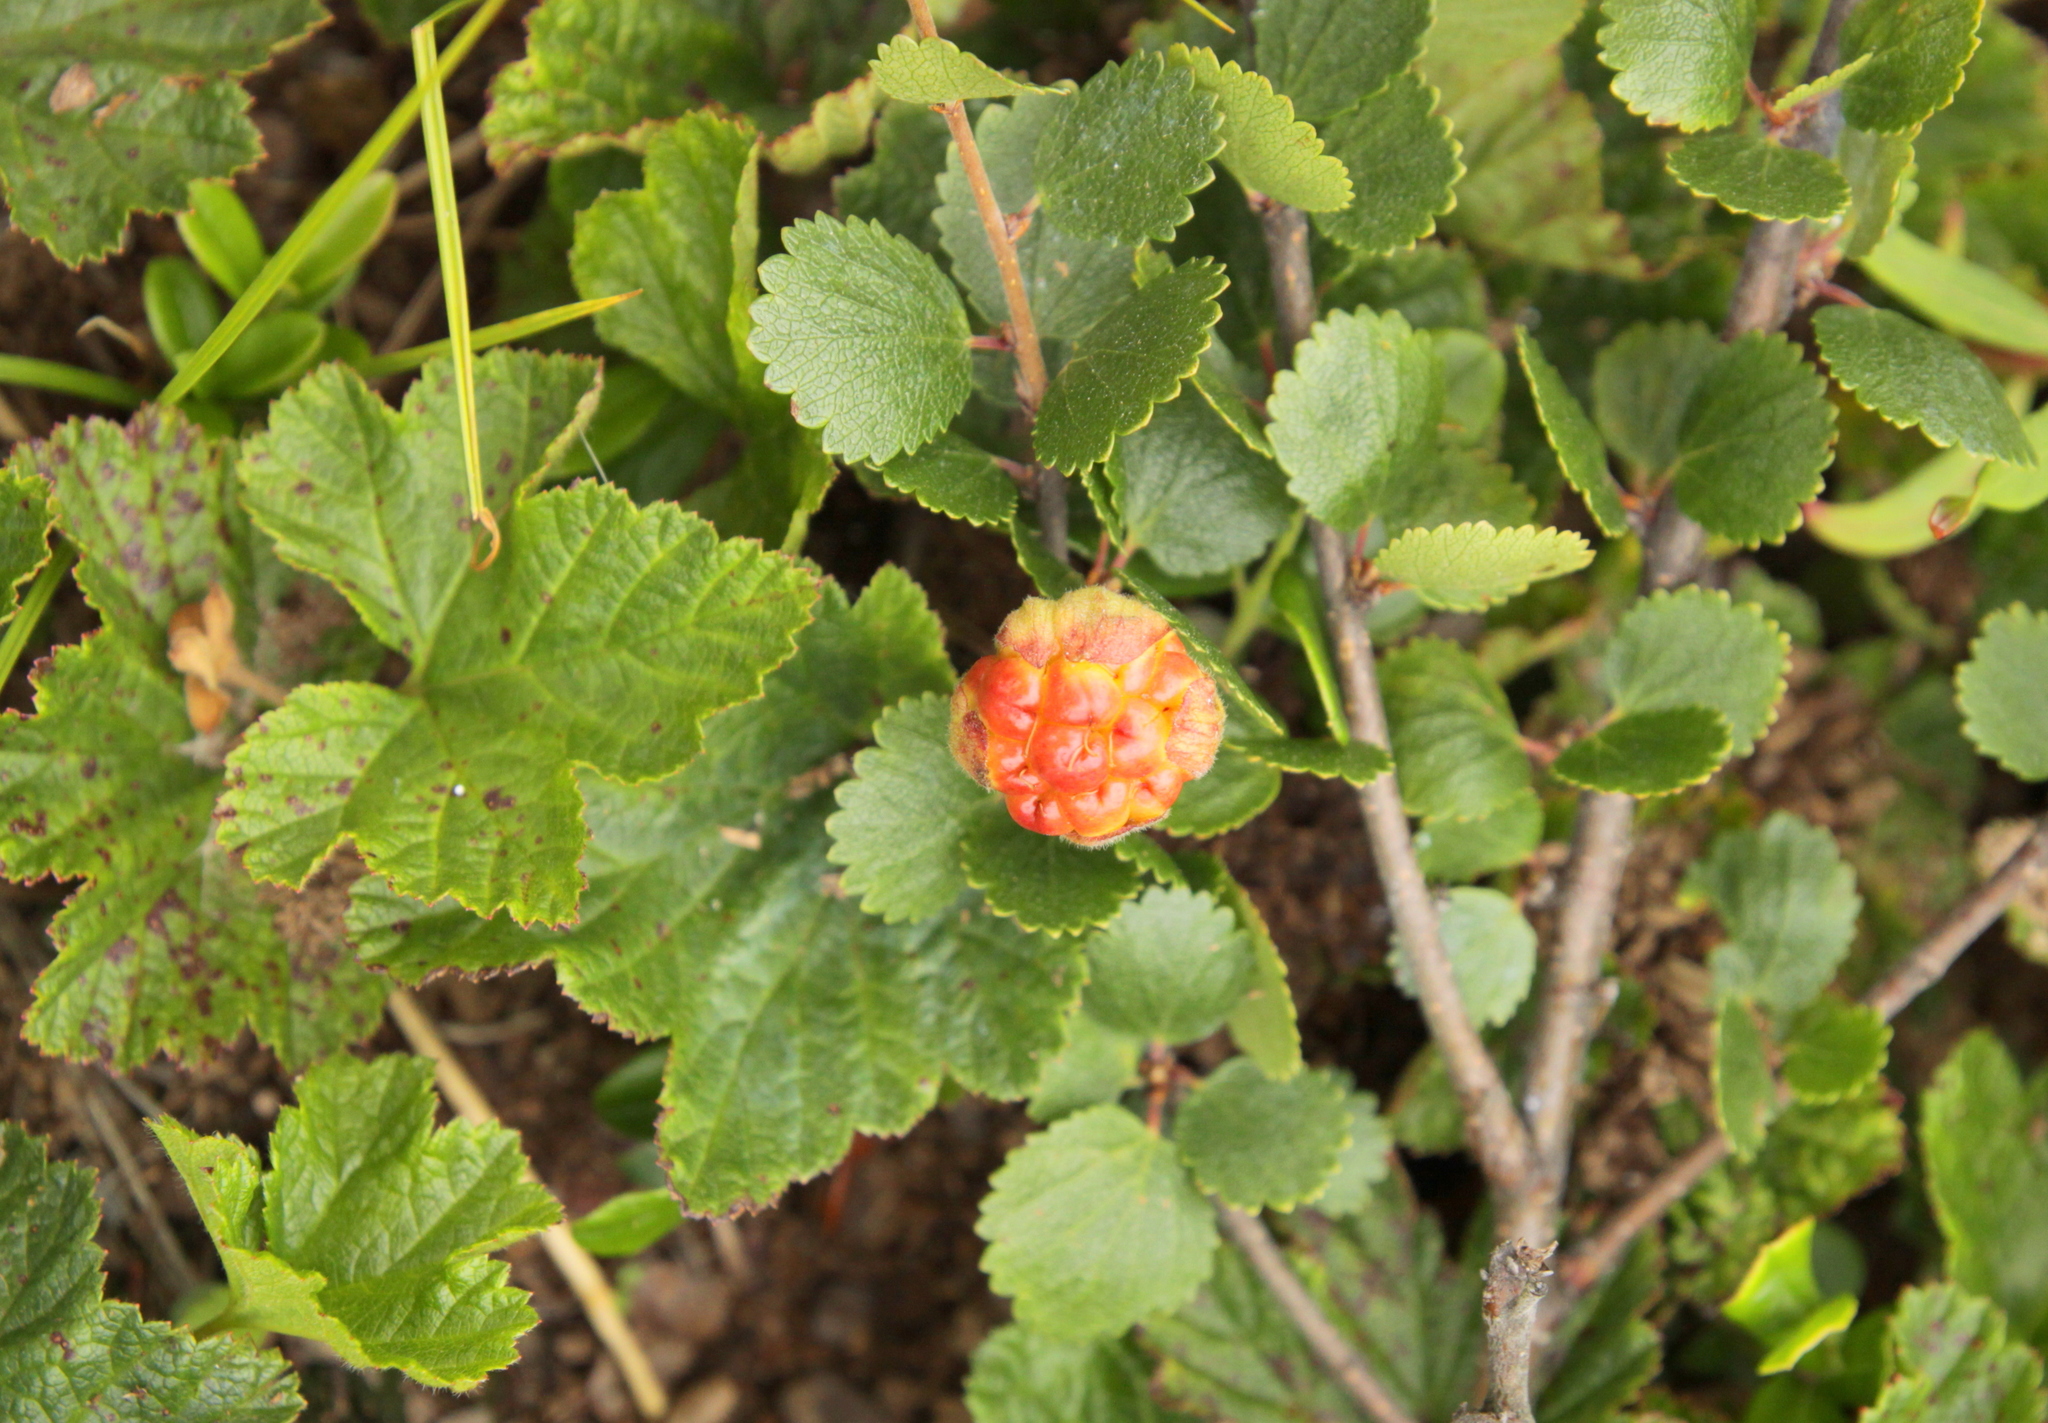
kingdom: Plantae
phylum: Tracheophyta
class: Magnoliopsida
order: Rosales
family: Rosaceae
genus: Rubus
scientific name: Rubus chamaemorus
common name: Cloudberry
